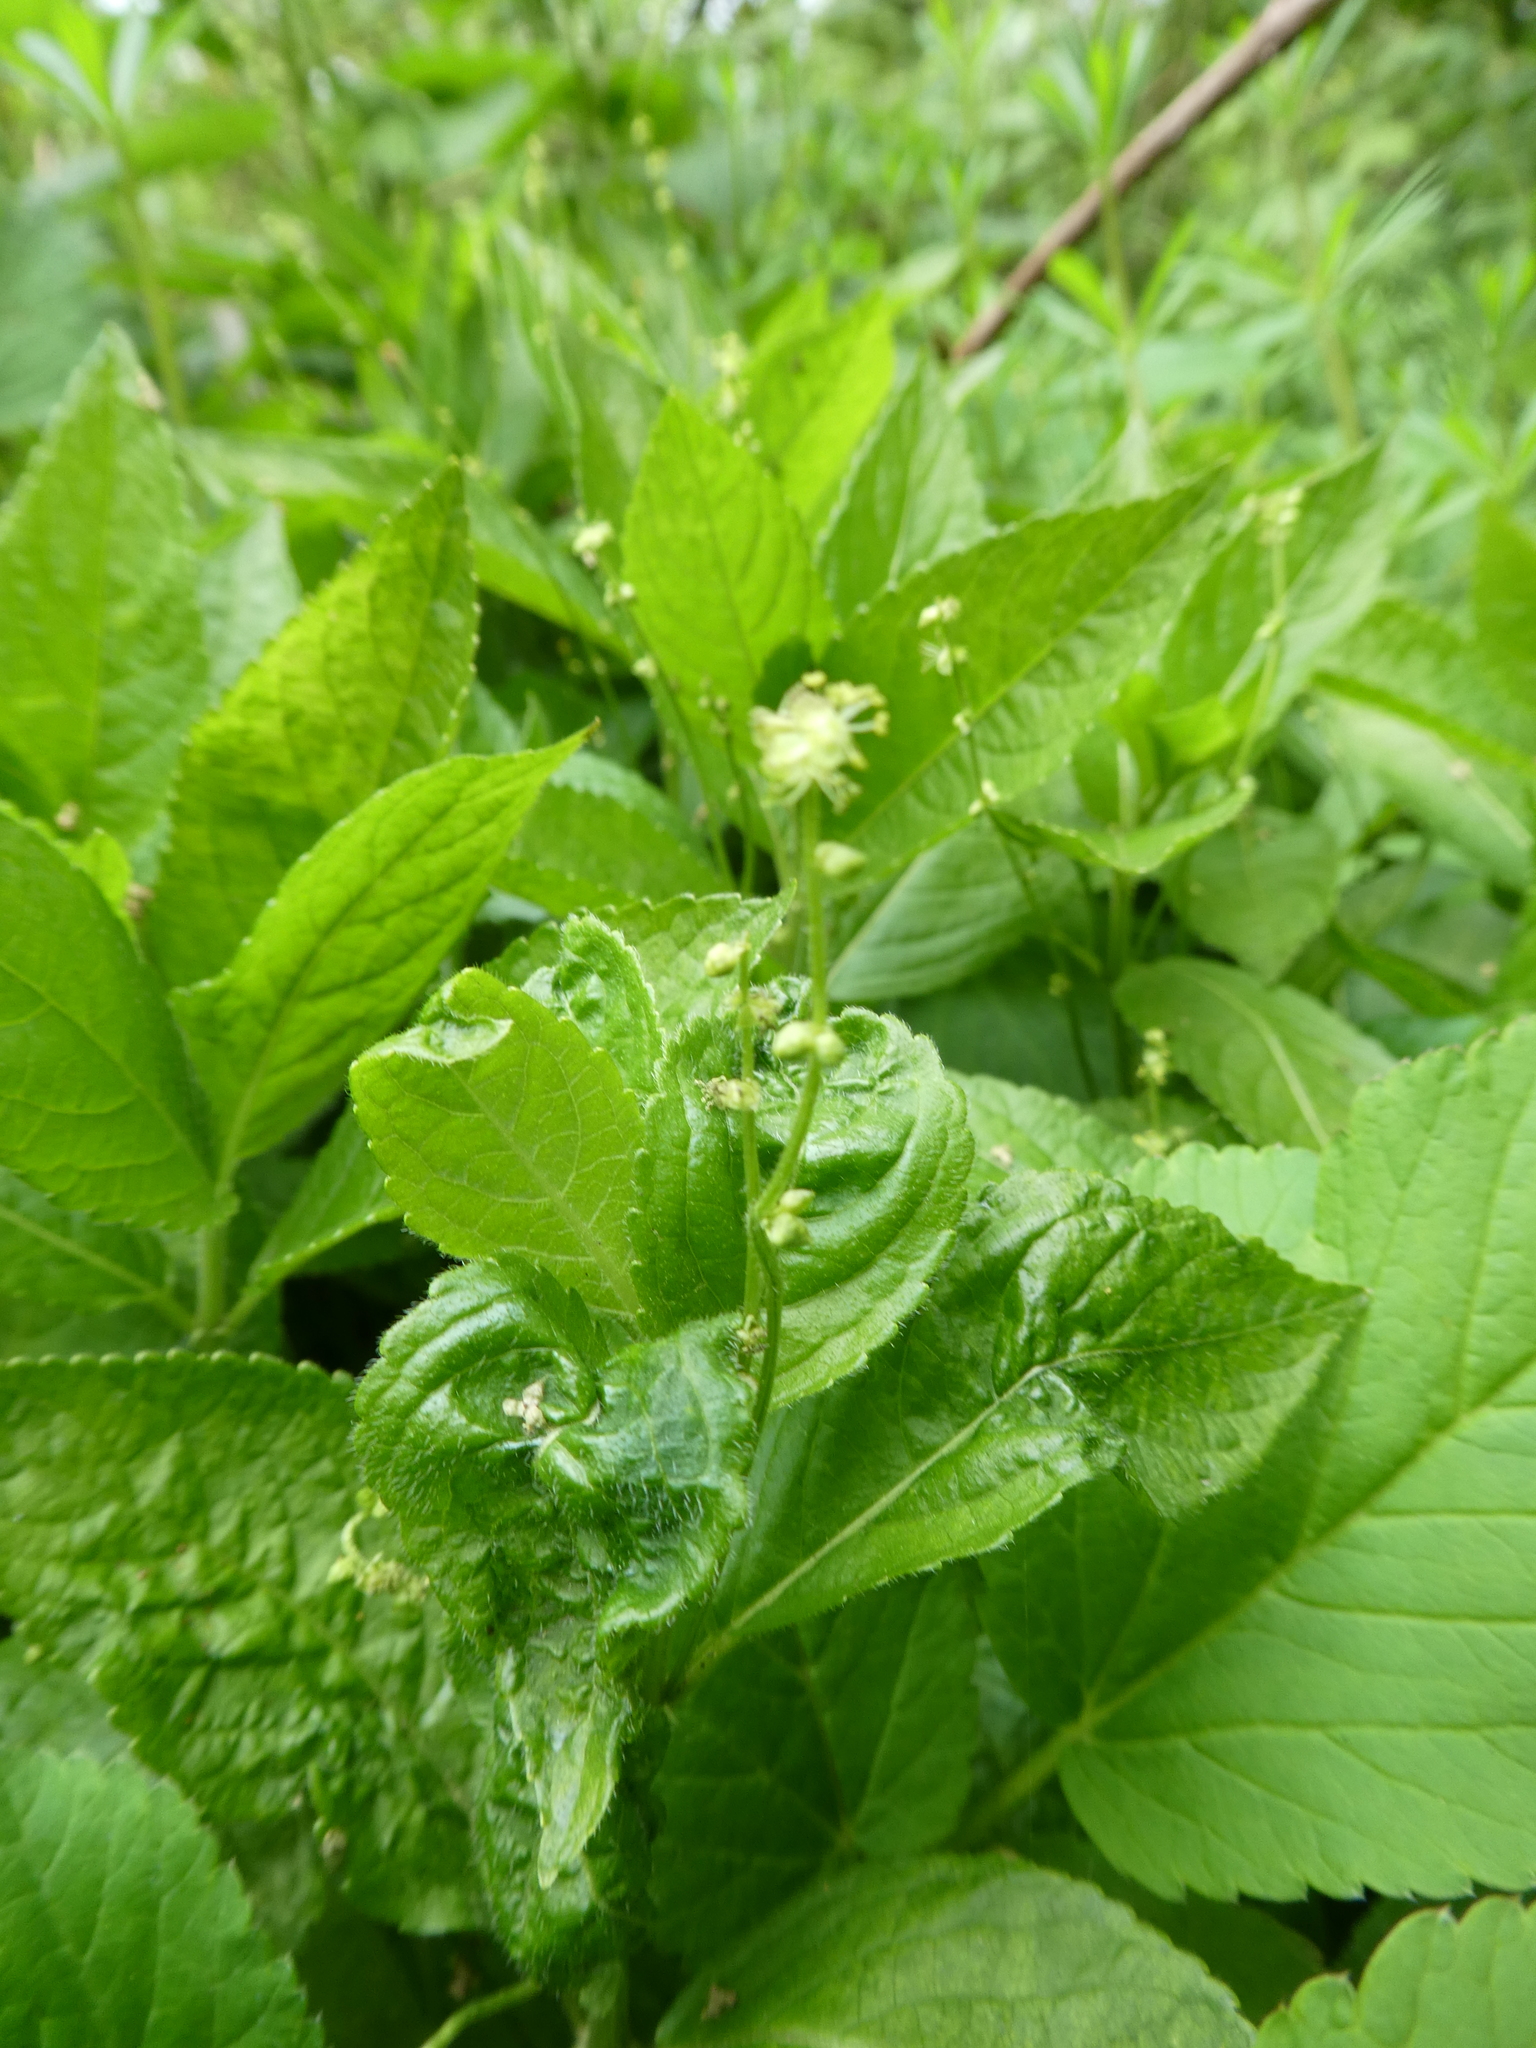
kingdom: Plantae
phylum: Tracheophyta
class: Magnoliopsida
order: Malpighiales
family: Euphorbiaceae
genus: Mercurialis
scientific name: Mercurialis perennis
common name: Dog mercury
